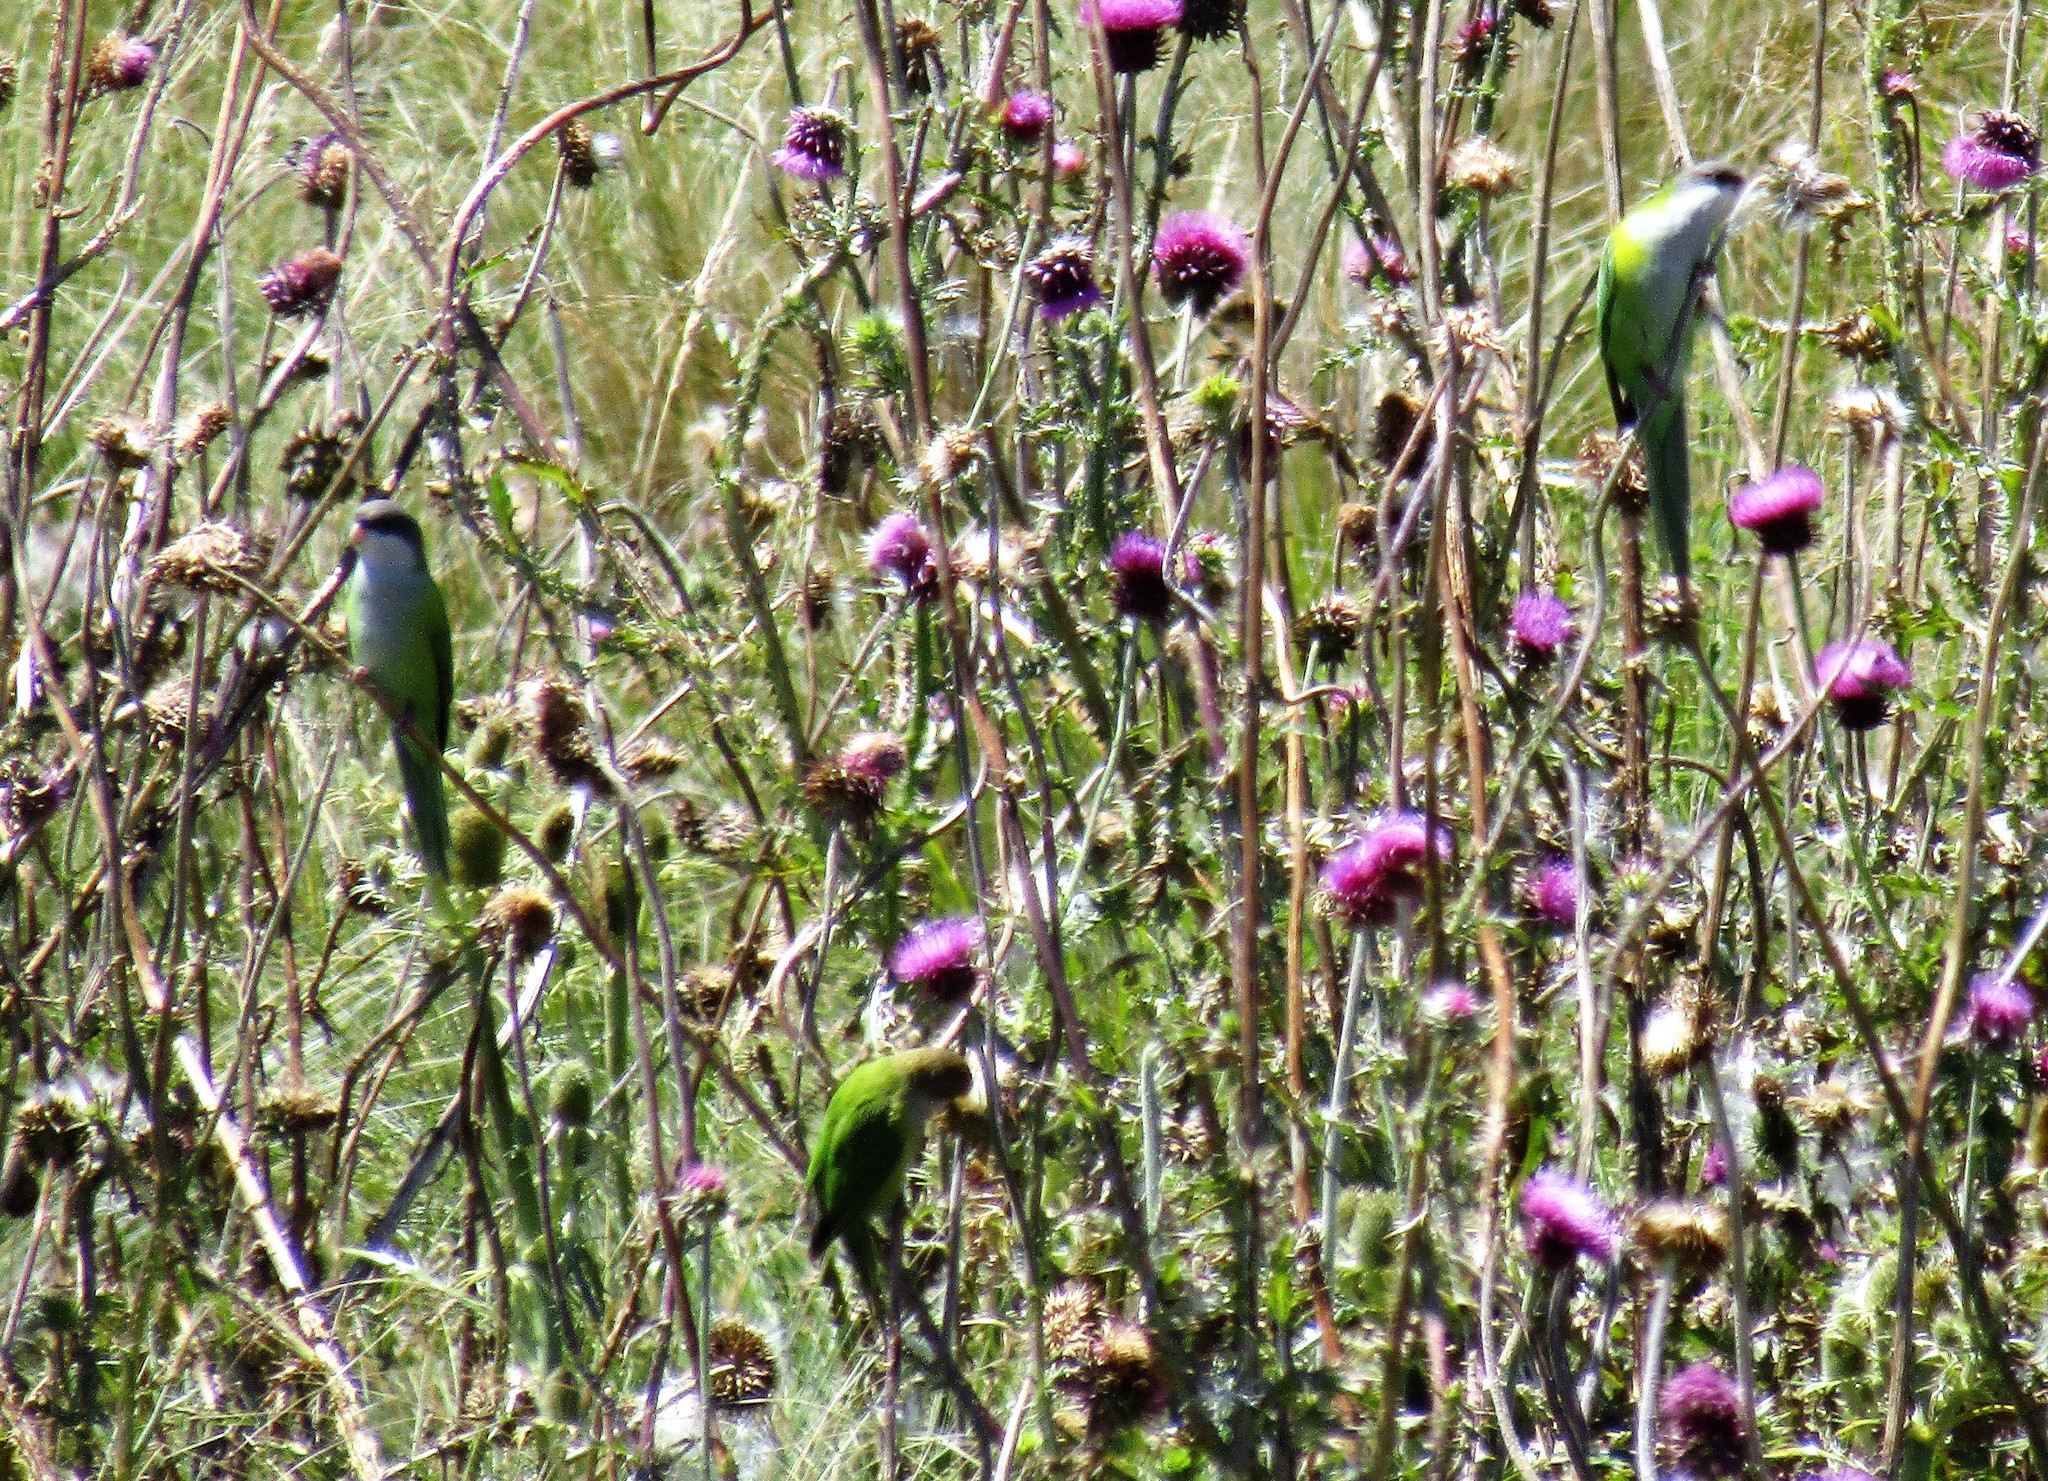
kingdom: Animalia
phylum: Chordata
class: Aves
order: Psittaciformes
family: Psittacidae
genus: Psilopsiagon
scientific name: Psilopsiagon aymara
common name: Grey-hooded parakeet
